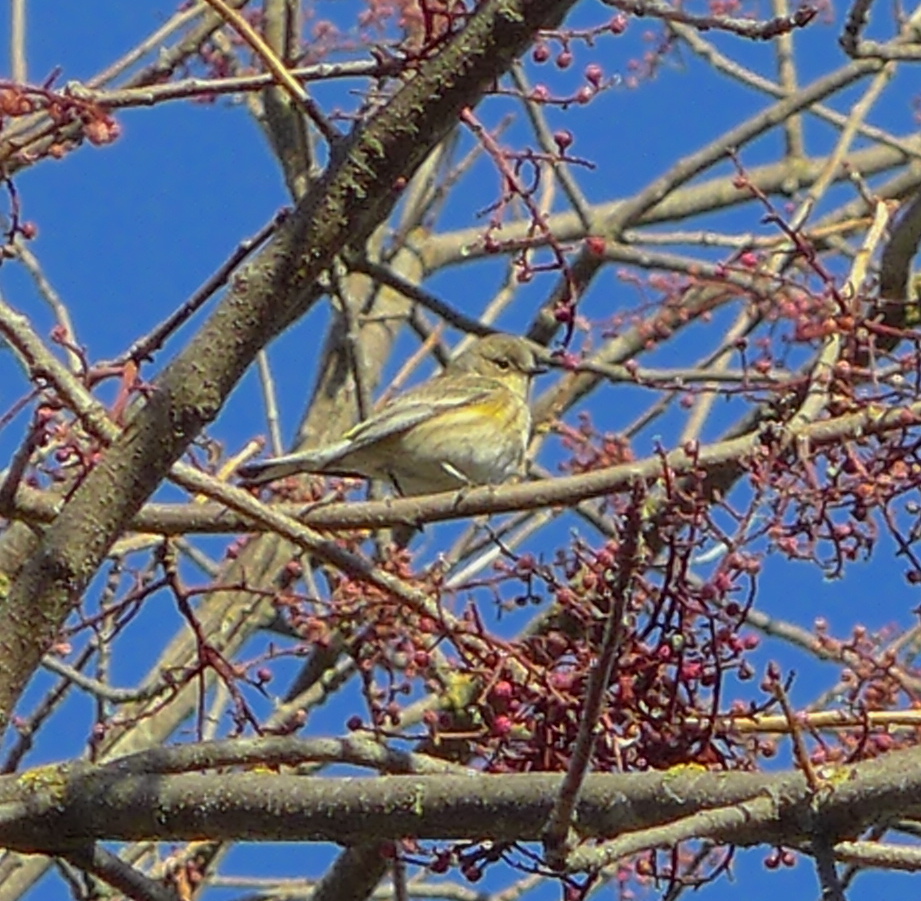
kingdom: Animalia
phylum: Chordata
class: Aves
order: Passeriformes
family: Parulidae
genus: Setophaga
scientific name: Setophaga coronata
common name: Myrtle warbler
